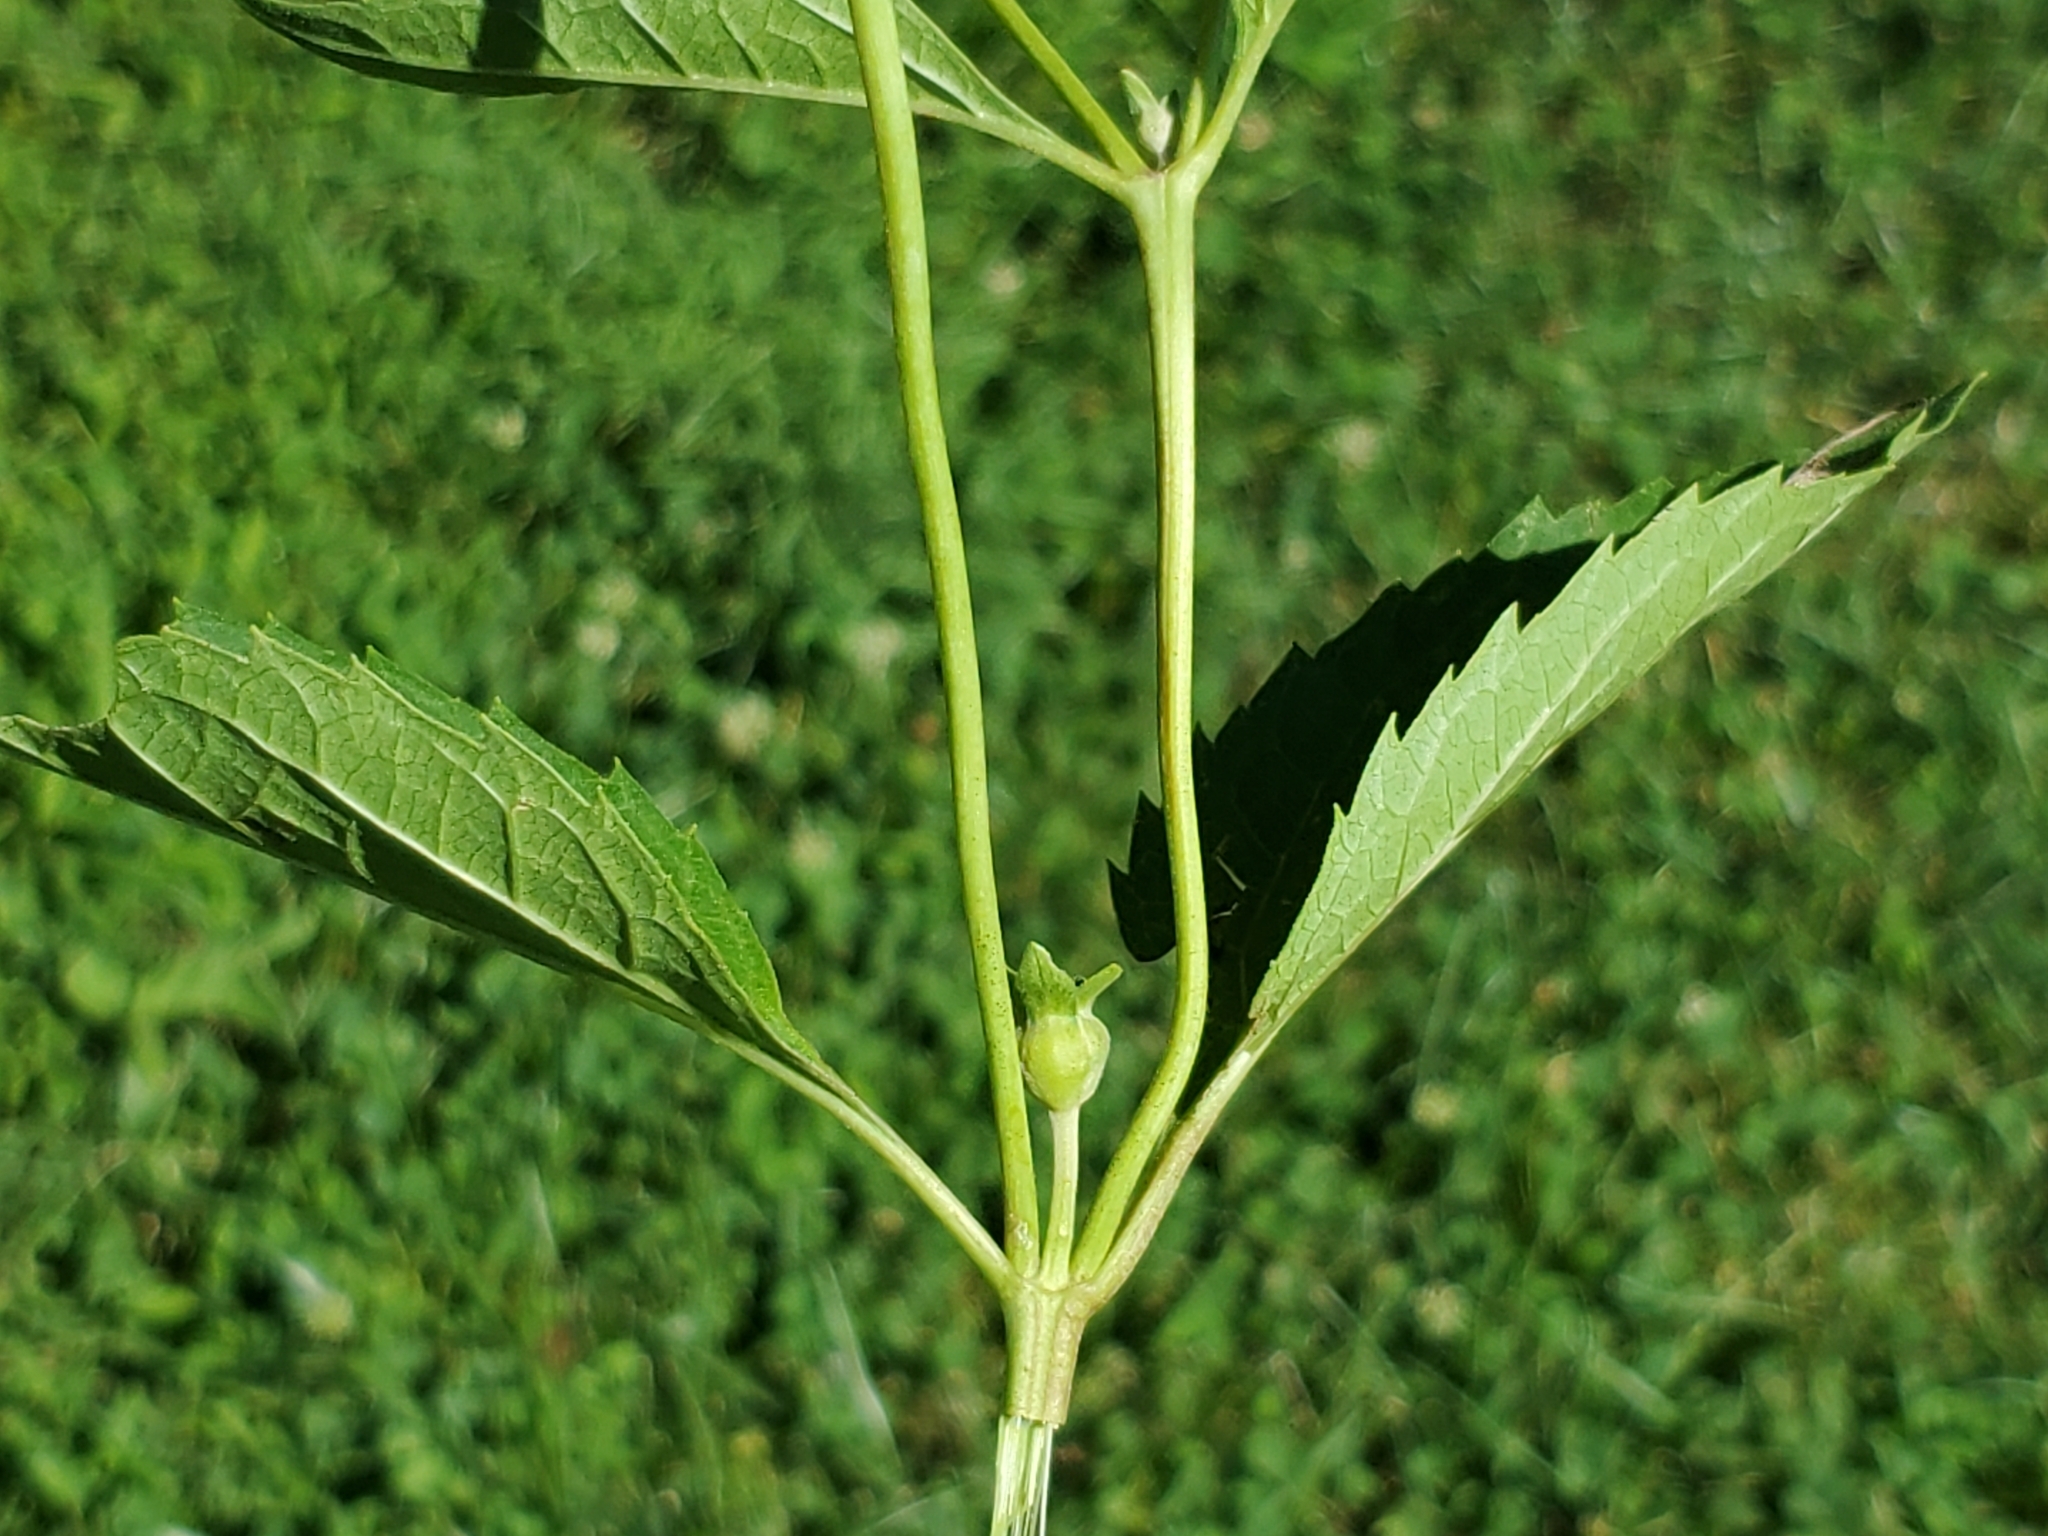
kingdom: Plantae
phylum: Tracheophyta
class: Magnoliopsida
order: Asterales
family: Asteraceae
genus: Heliopsis
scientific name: Heliopsis helianthoides
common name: False sunflower
